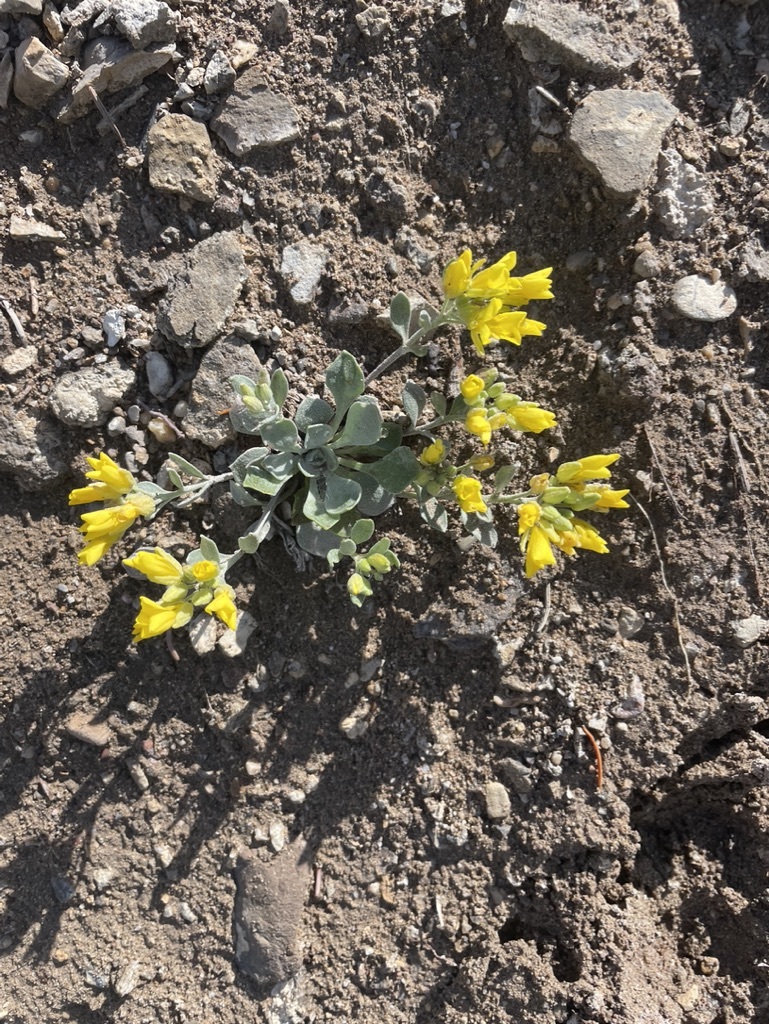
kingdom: Plantae
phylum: Tracheophyta
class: Magnoliopsida
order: Brassicales
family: Brassicaceae
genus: Physaria
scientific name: Physaria didymocarpa
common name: Common twinpod
